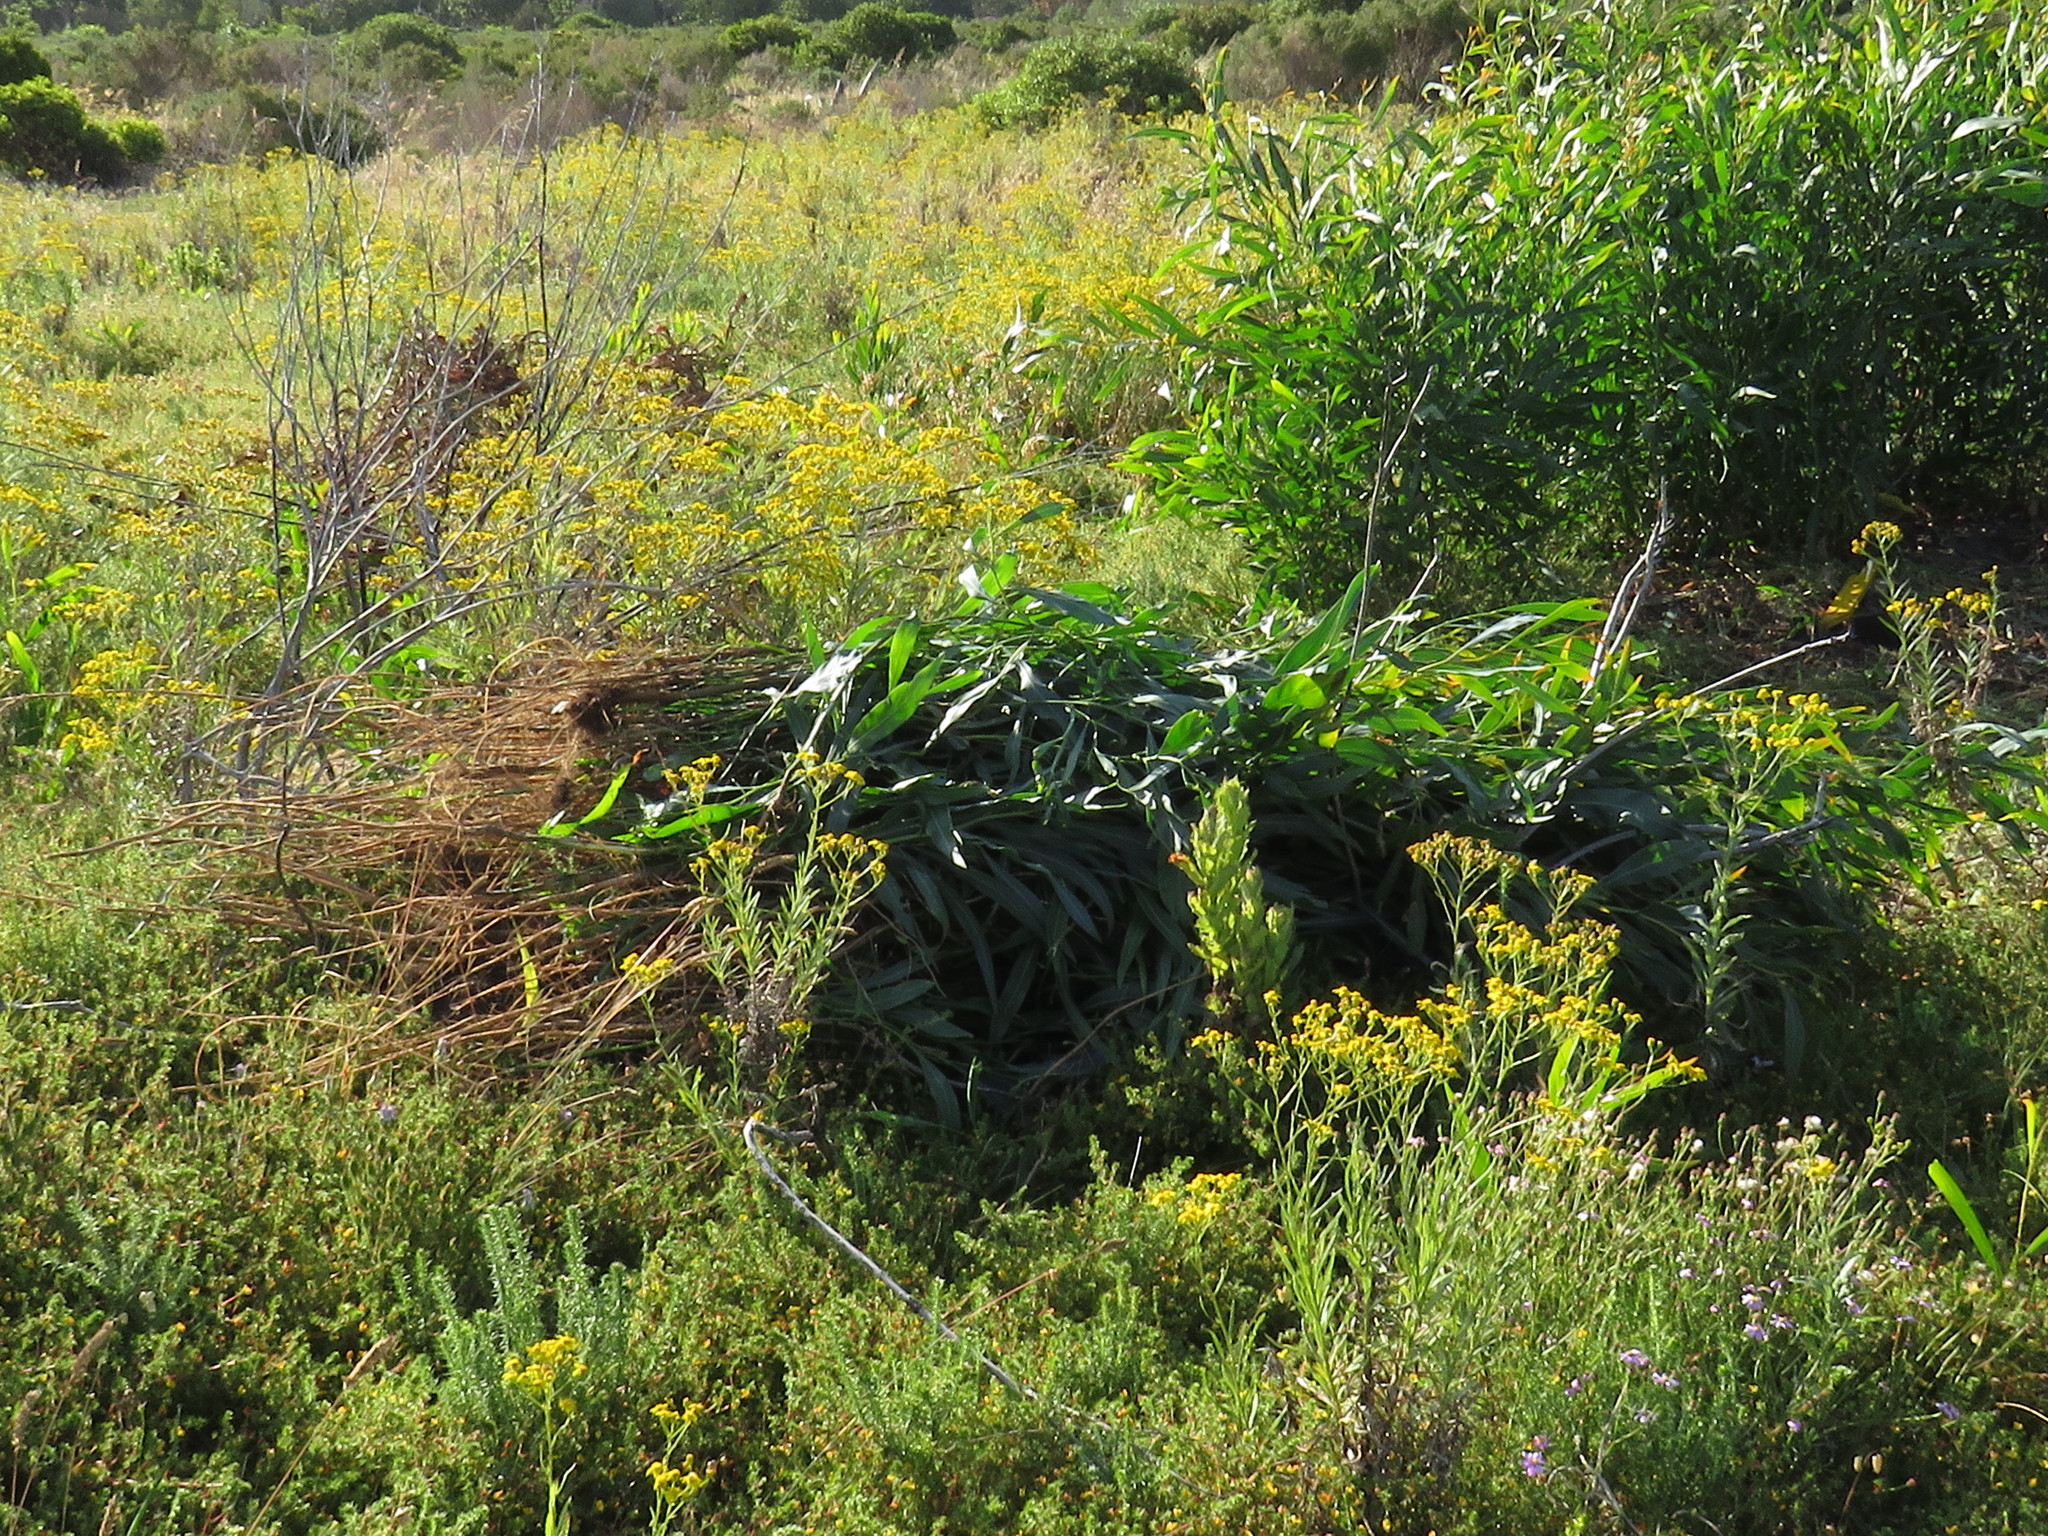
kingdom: Plantae
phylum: Tracheophyta
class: Magnoliopsida
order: Fabales
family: Fabaceae
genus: Acacia
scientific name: Acacia saligna
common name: Orange wattle
